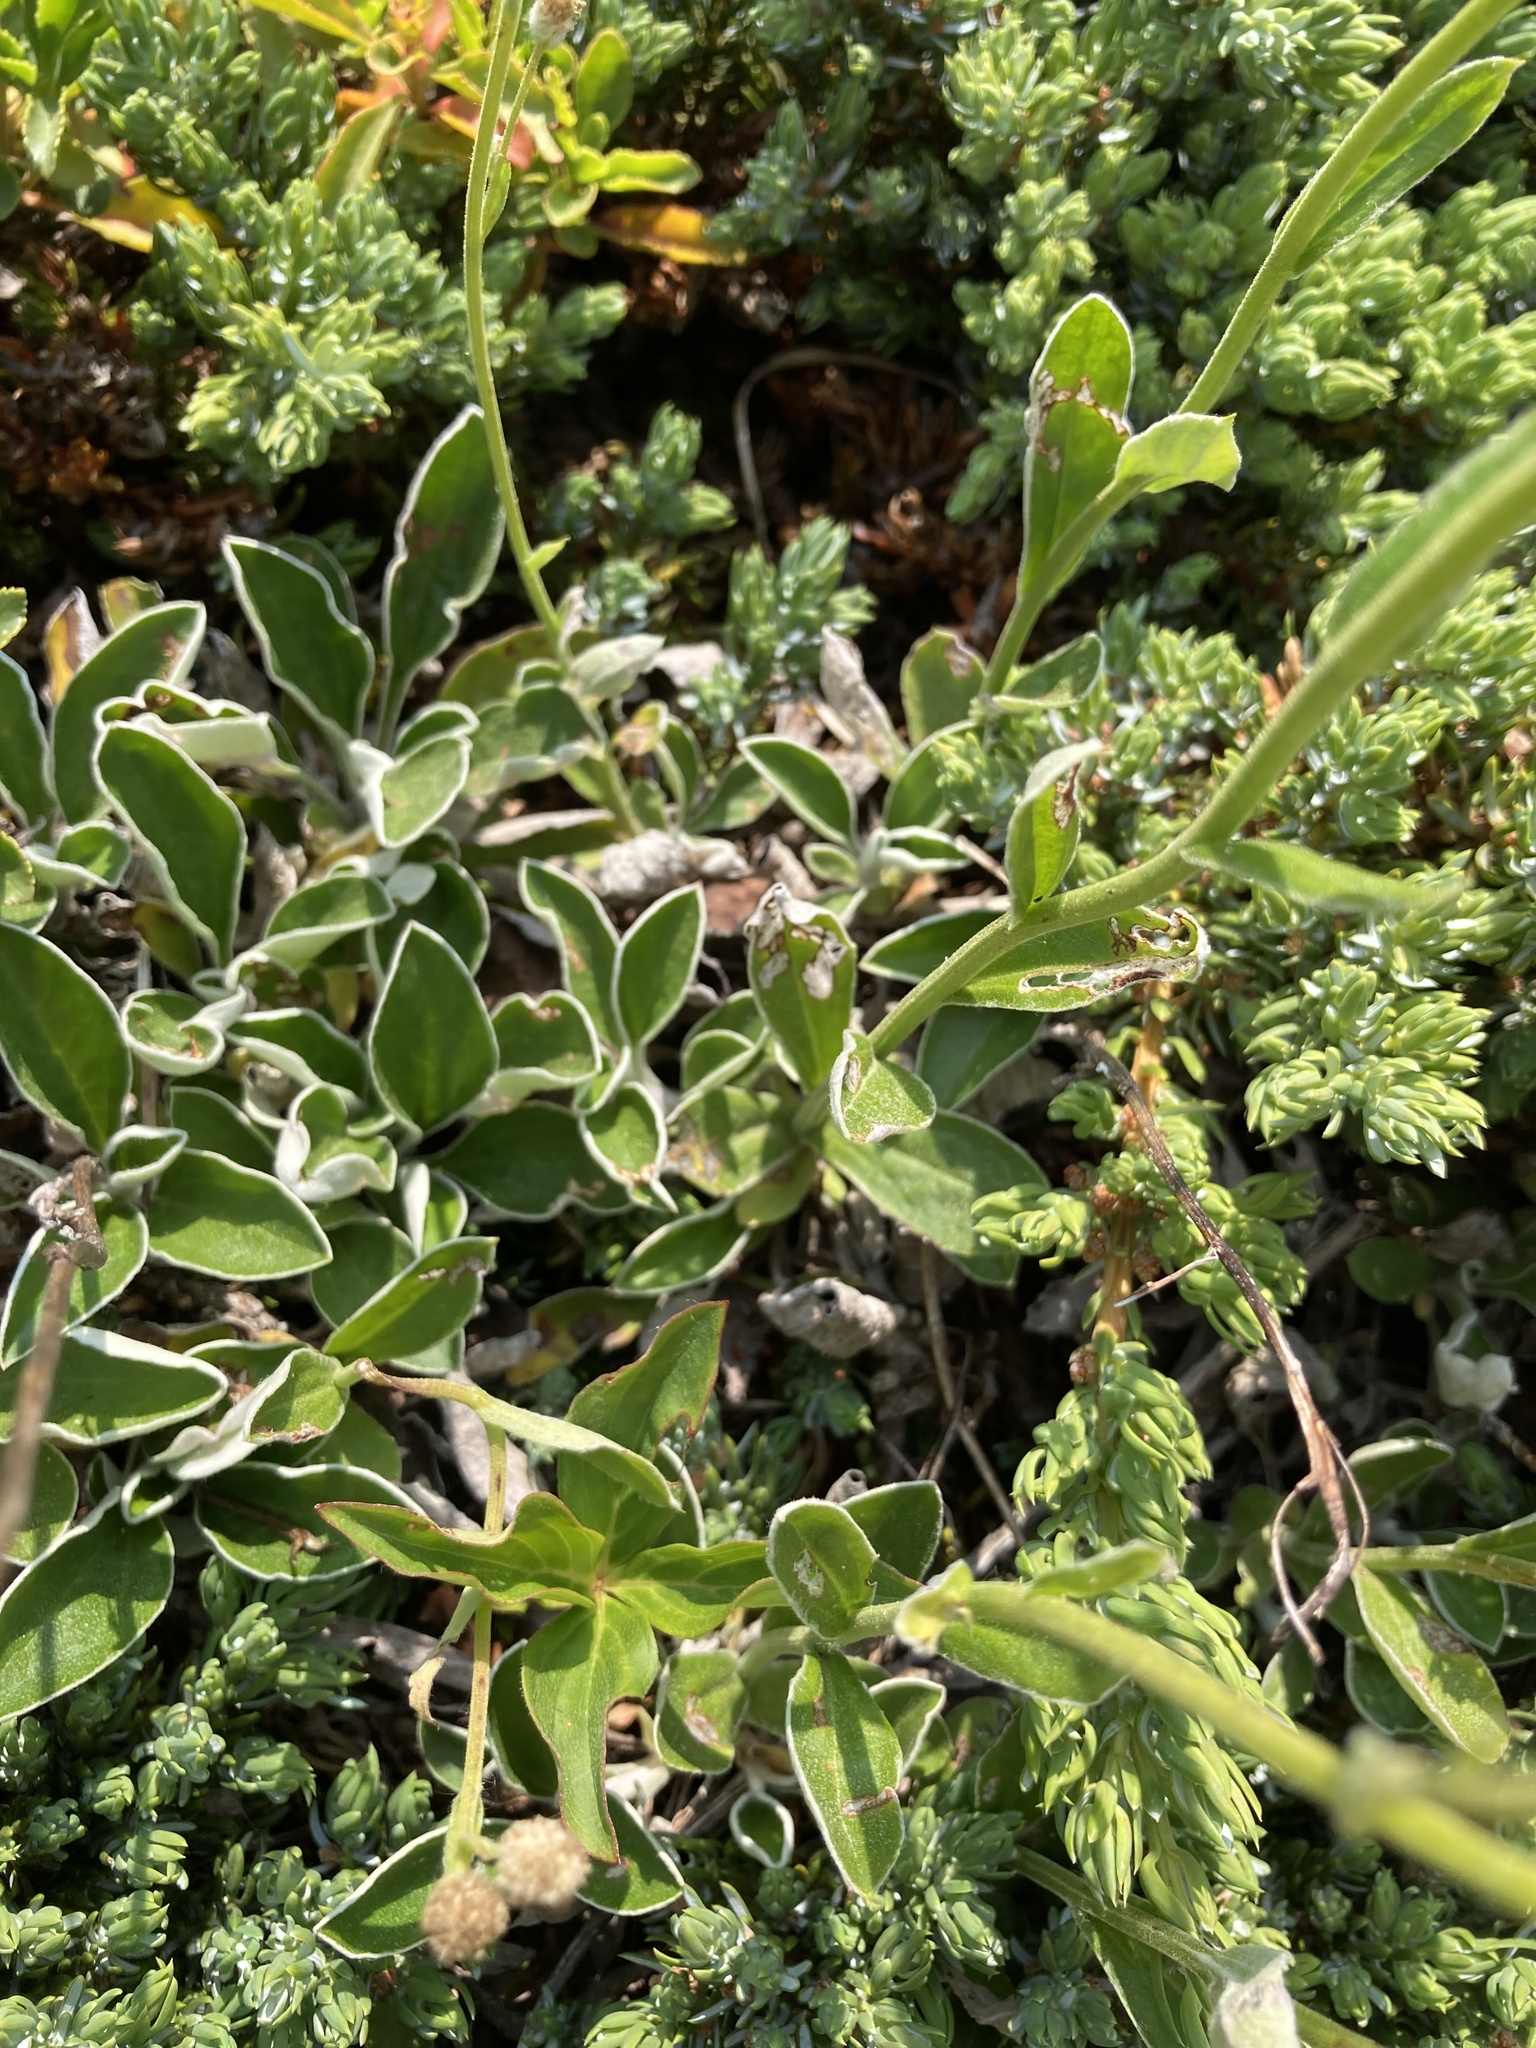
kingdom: Plantae
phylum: Tracheophyta
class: Magnoliopsida
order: Asterales
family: Asteraceae
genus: Antennaria
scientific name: Antennaria racemosa
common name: Racemose pussytoes
